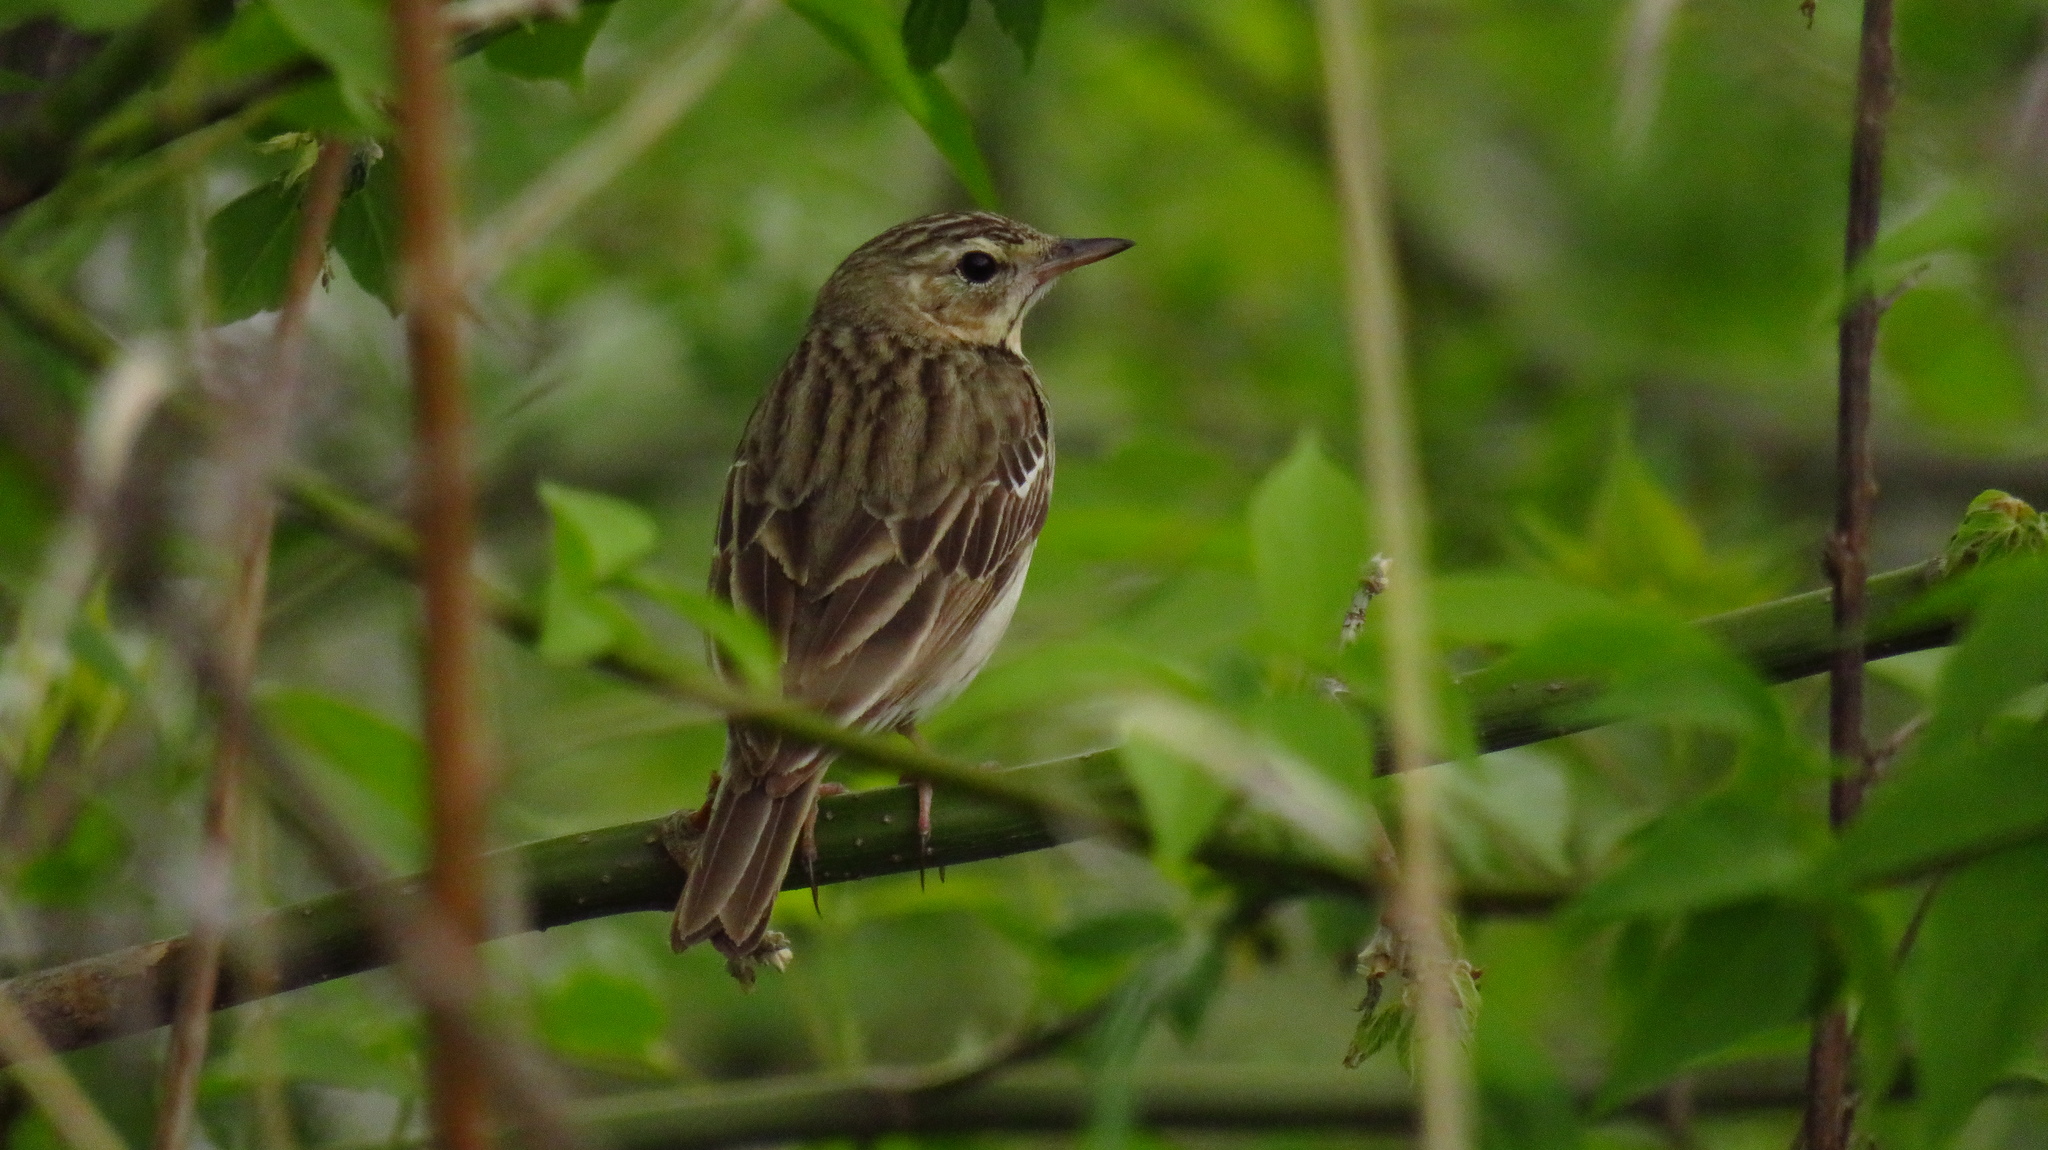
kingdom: Animalia
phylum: Chordata
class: Aves
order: Passeriformes
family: Motacillidae
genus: Anthus
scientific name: Anthus trivialis
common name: Tree pipit
